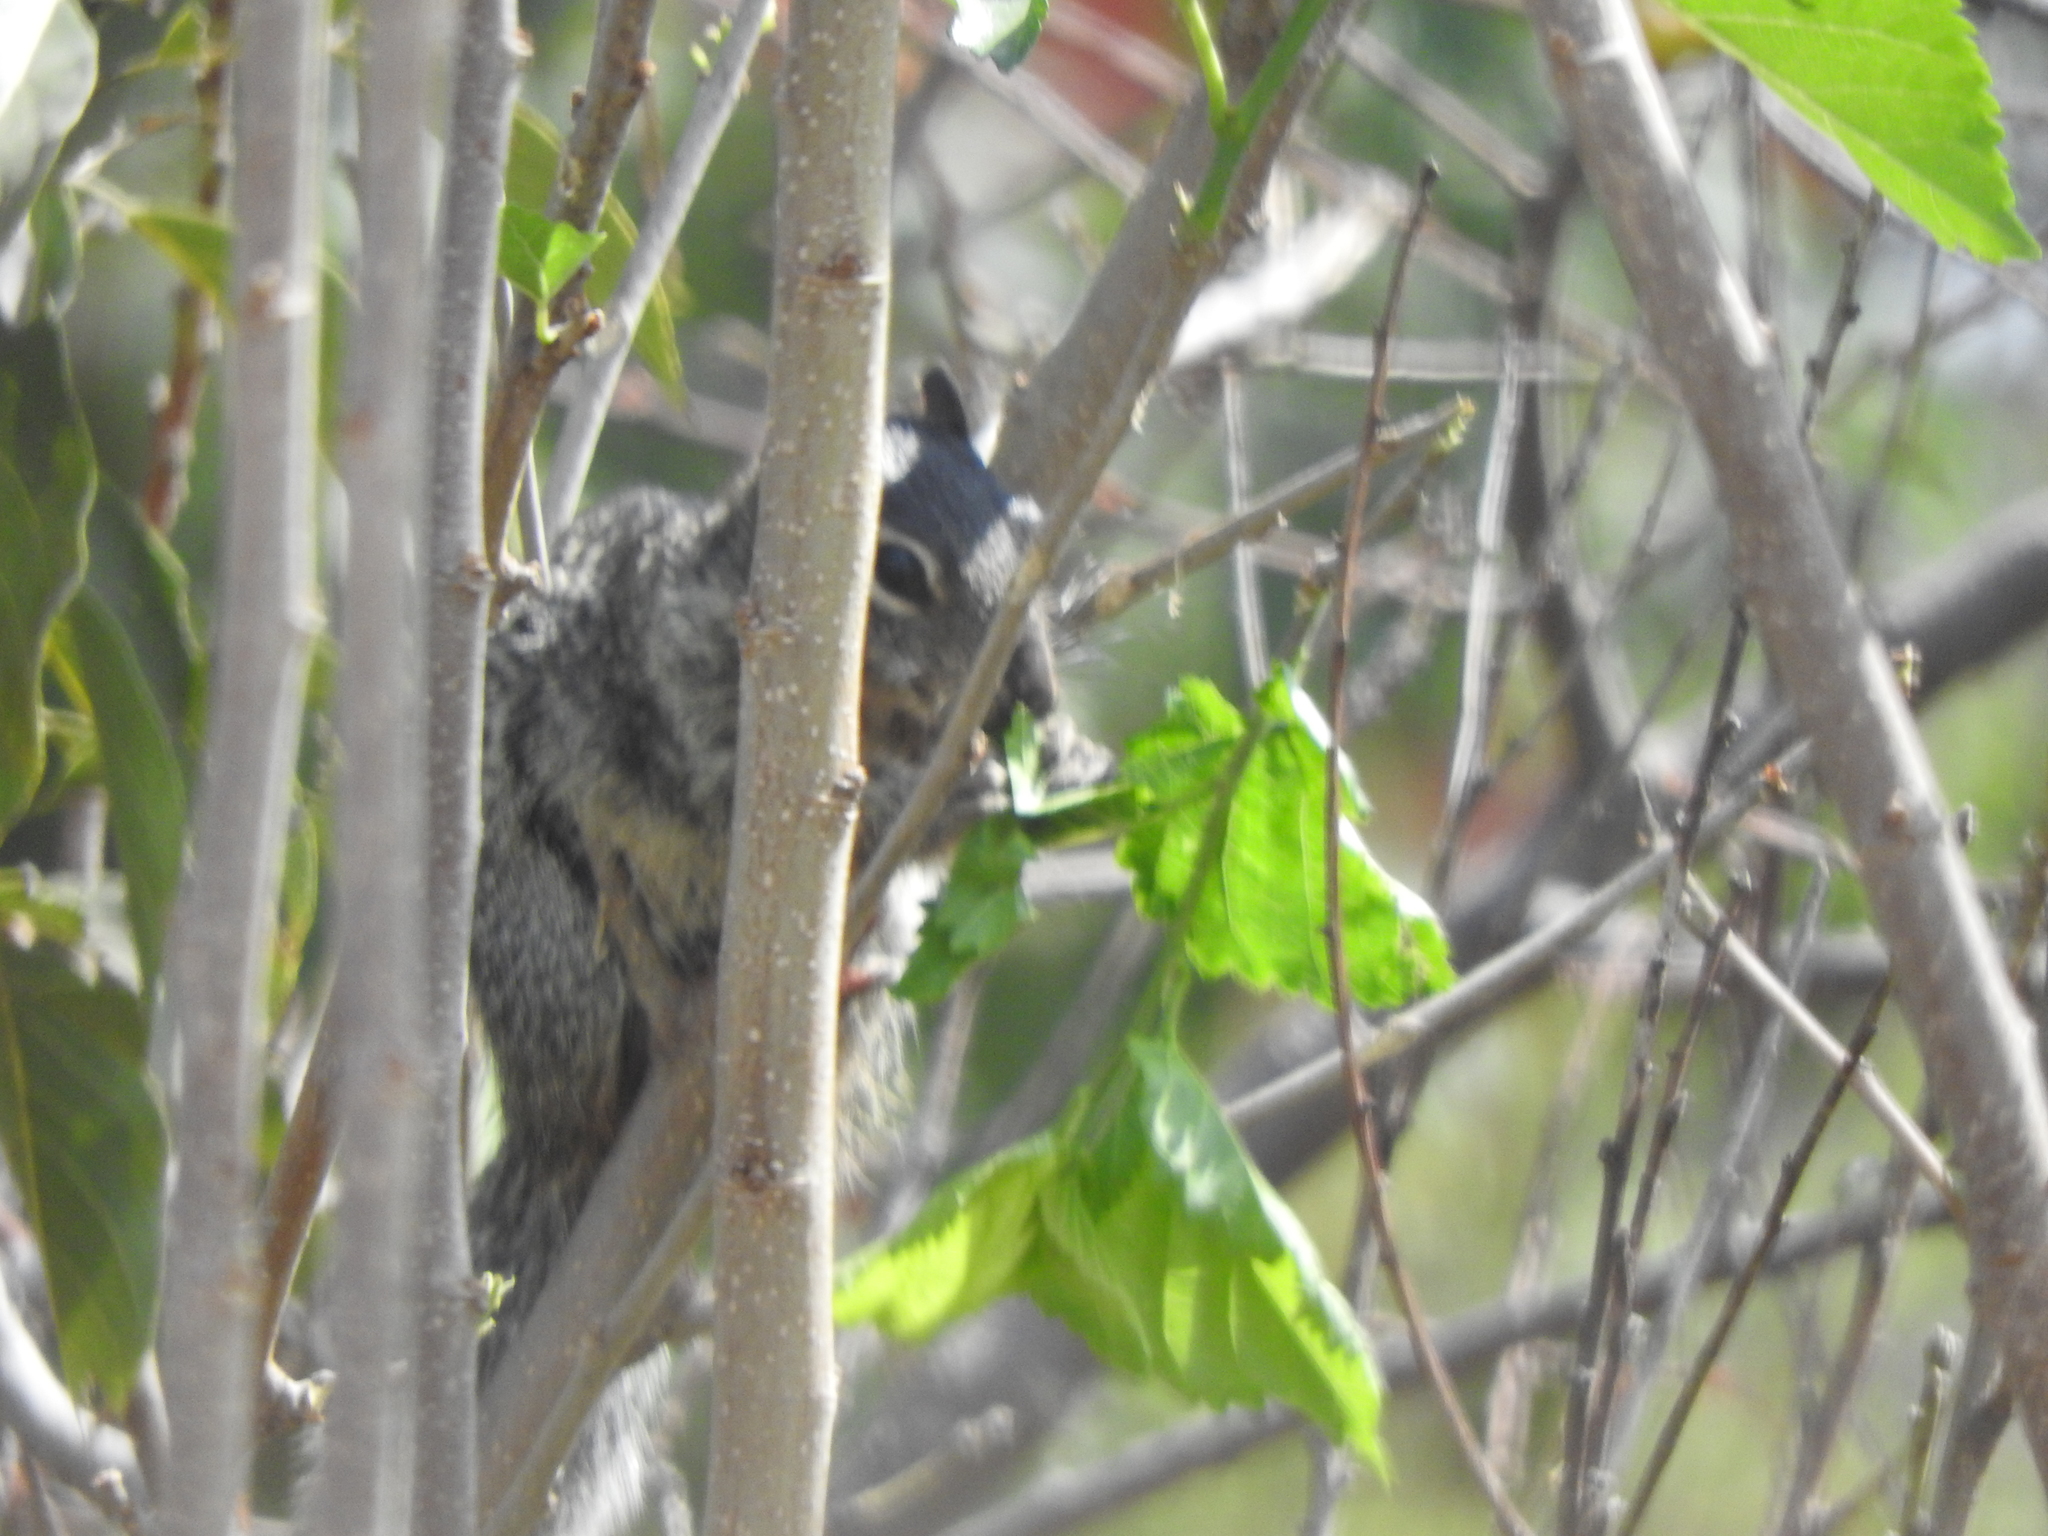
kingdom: Animalia
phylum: Chordata
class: Mammalia
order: Rodentia
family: Sciuridae
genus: Otospermophilus
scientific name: Otospermophilus variegatus
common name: Rock squirrel
